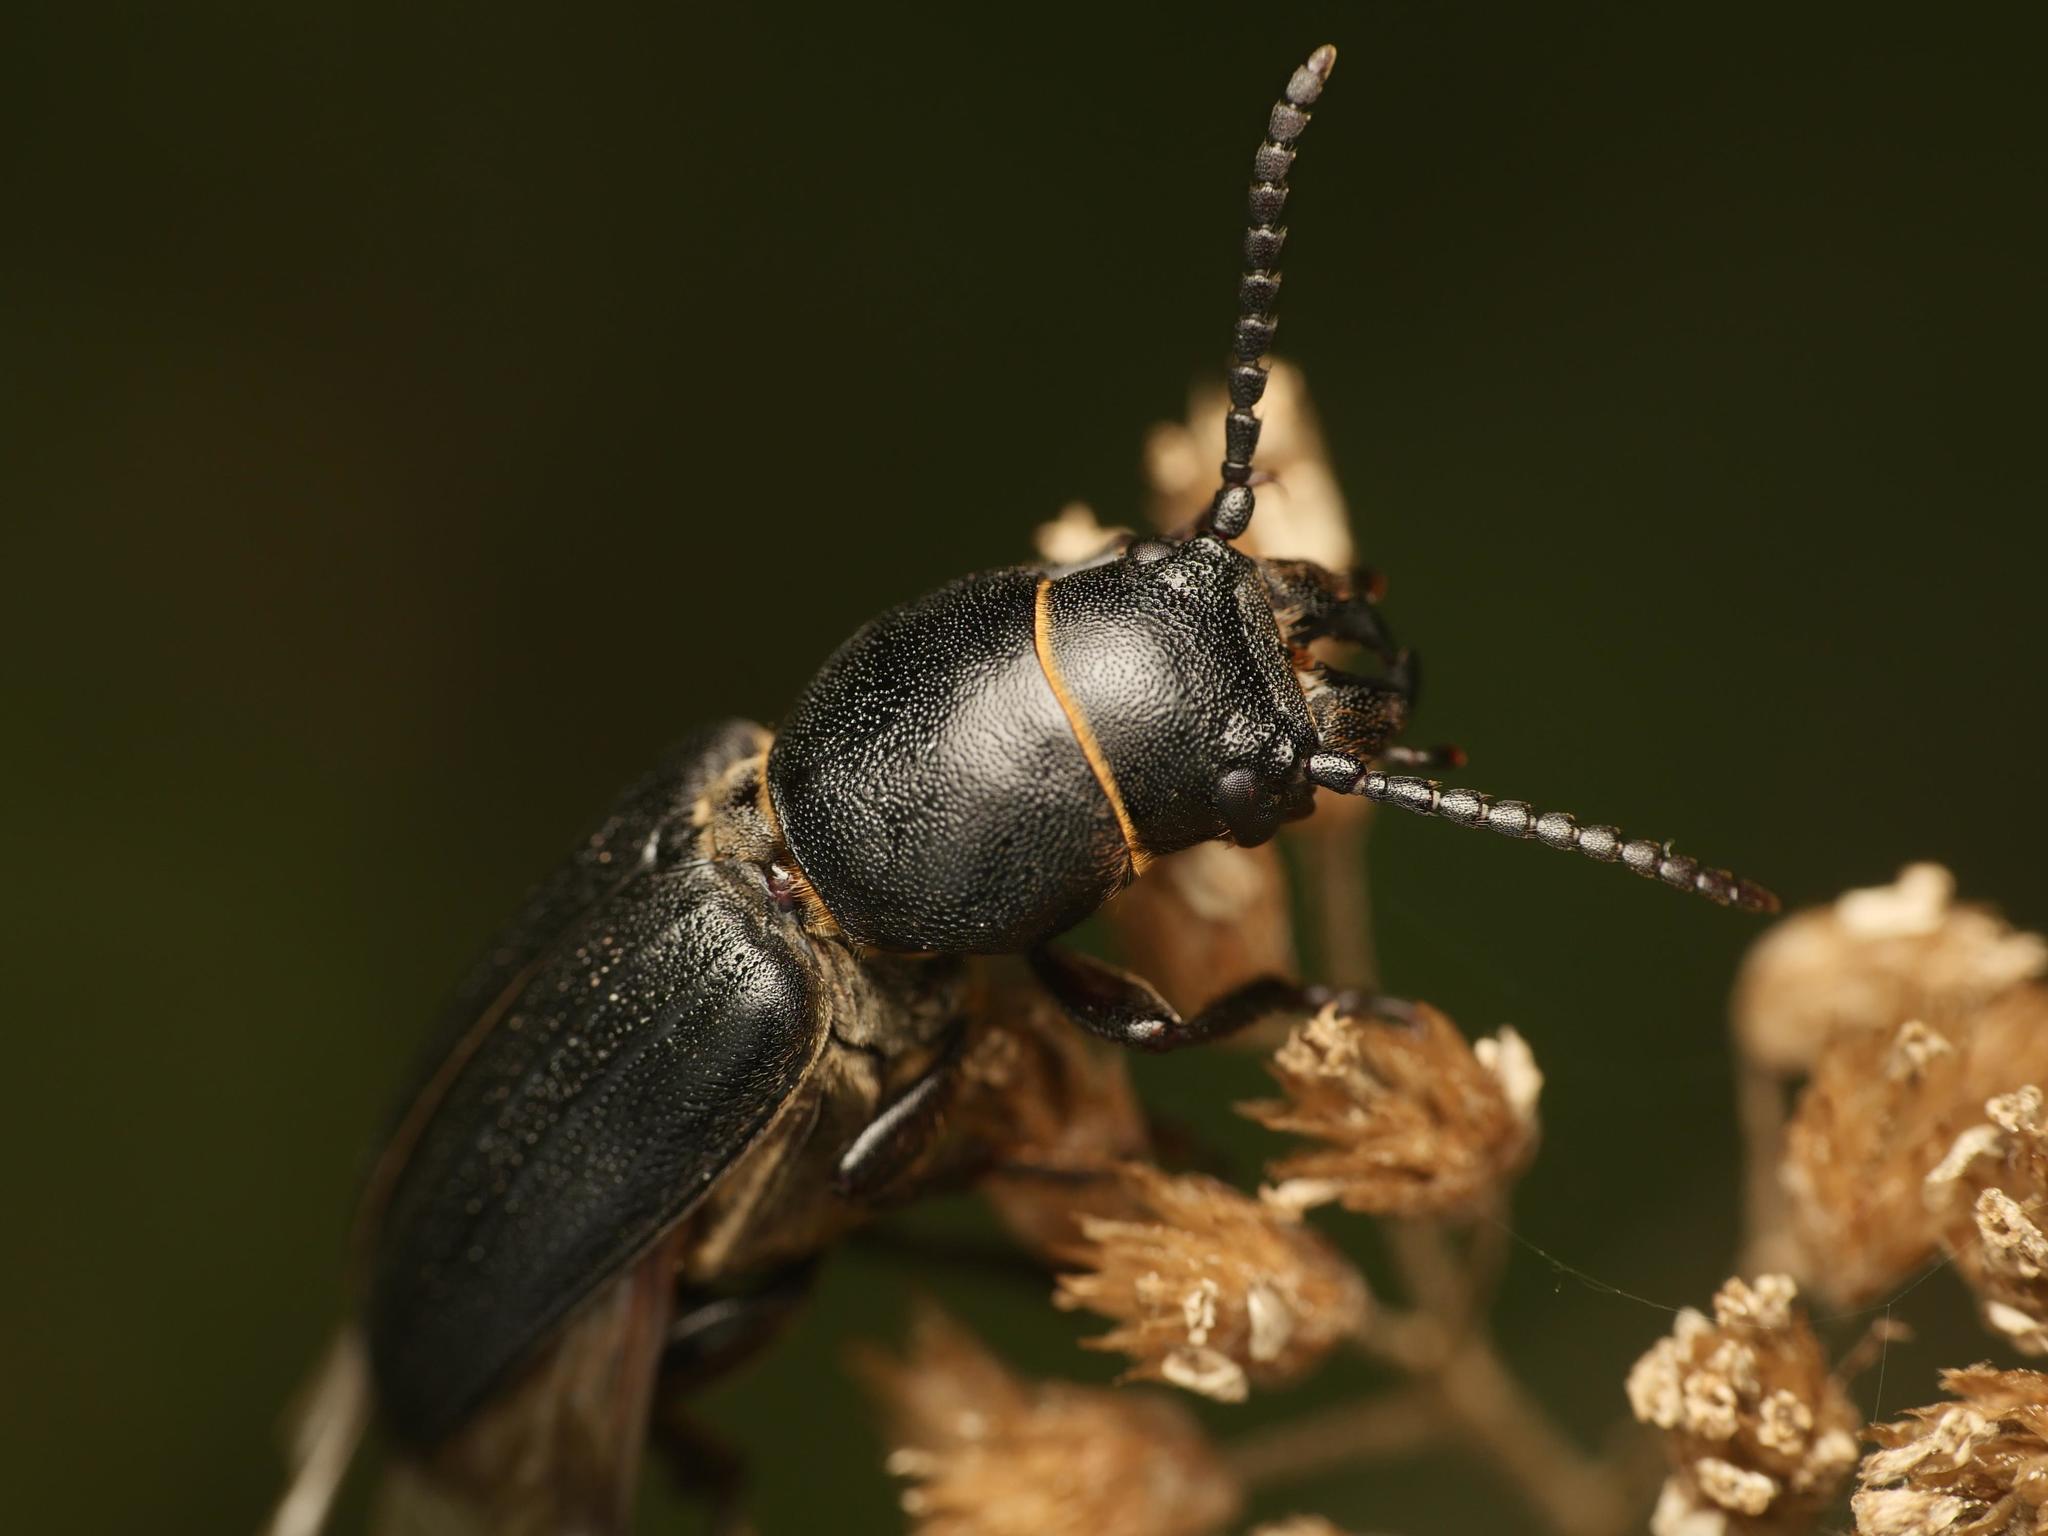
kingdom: Animalia
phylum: Arthropoda
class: Insecta
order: Coleoptera
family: Cerambycidae
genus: Spondylis
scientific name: Spondylis buprestoides
